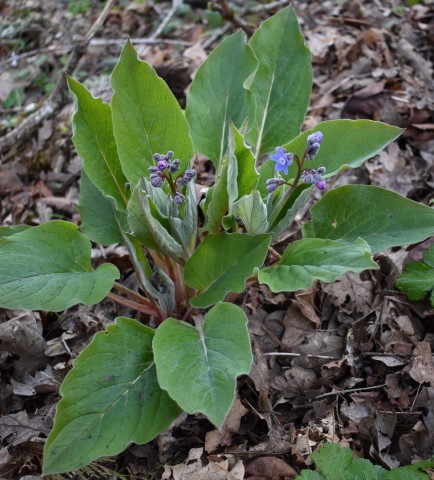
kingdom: Plantae
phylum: Tracheophyta
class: Magnoliopsida
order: Boraginales
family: Boraginaceae
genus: Adelinia
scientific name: Adelinia grande
